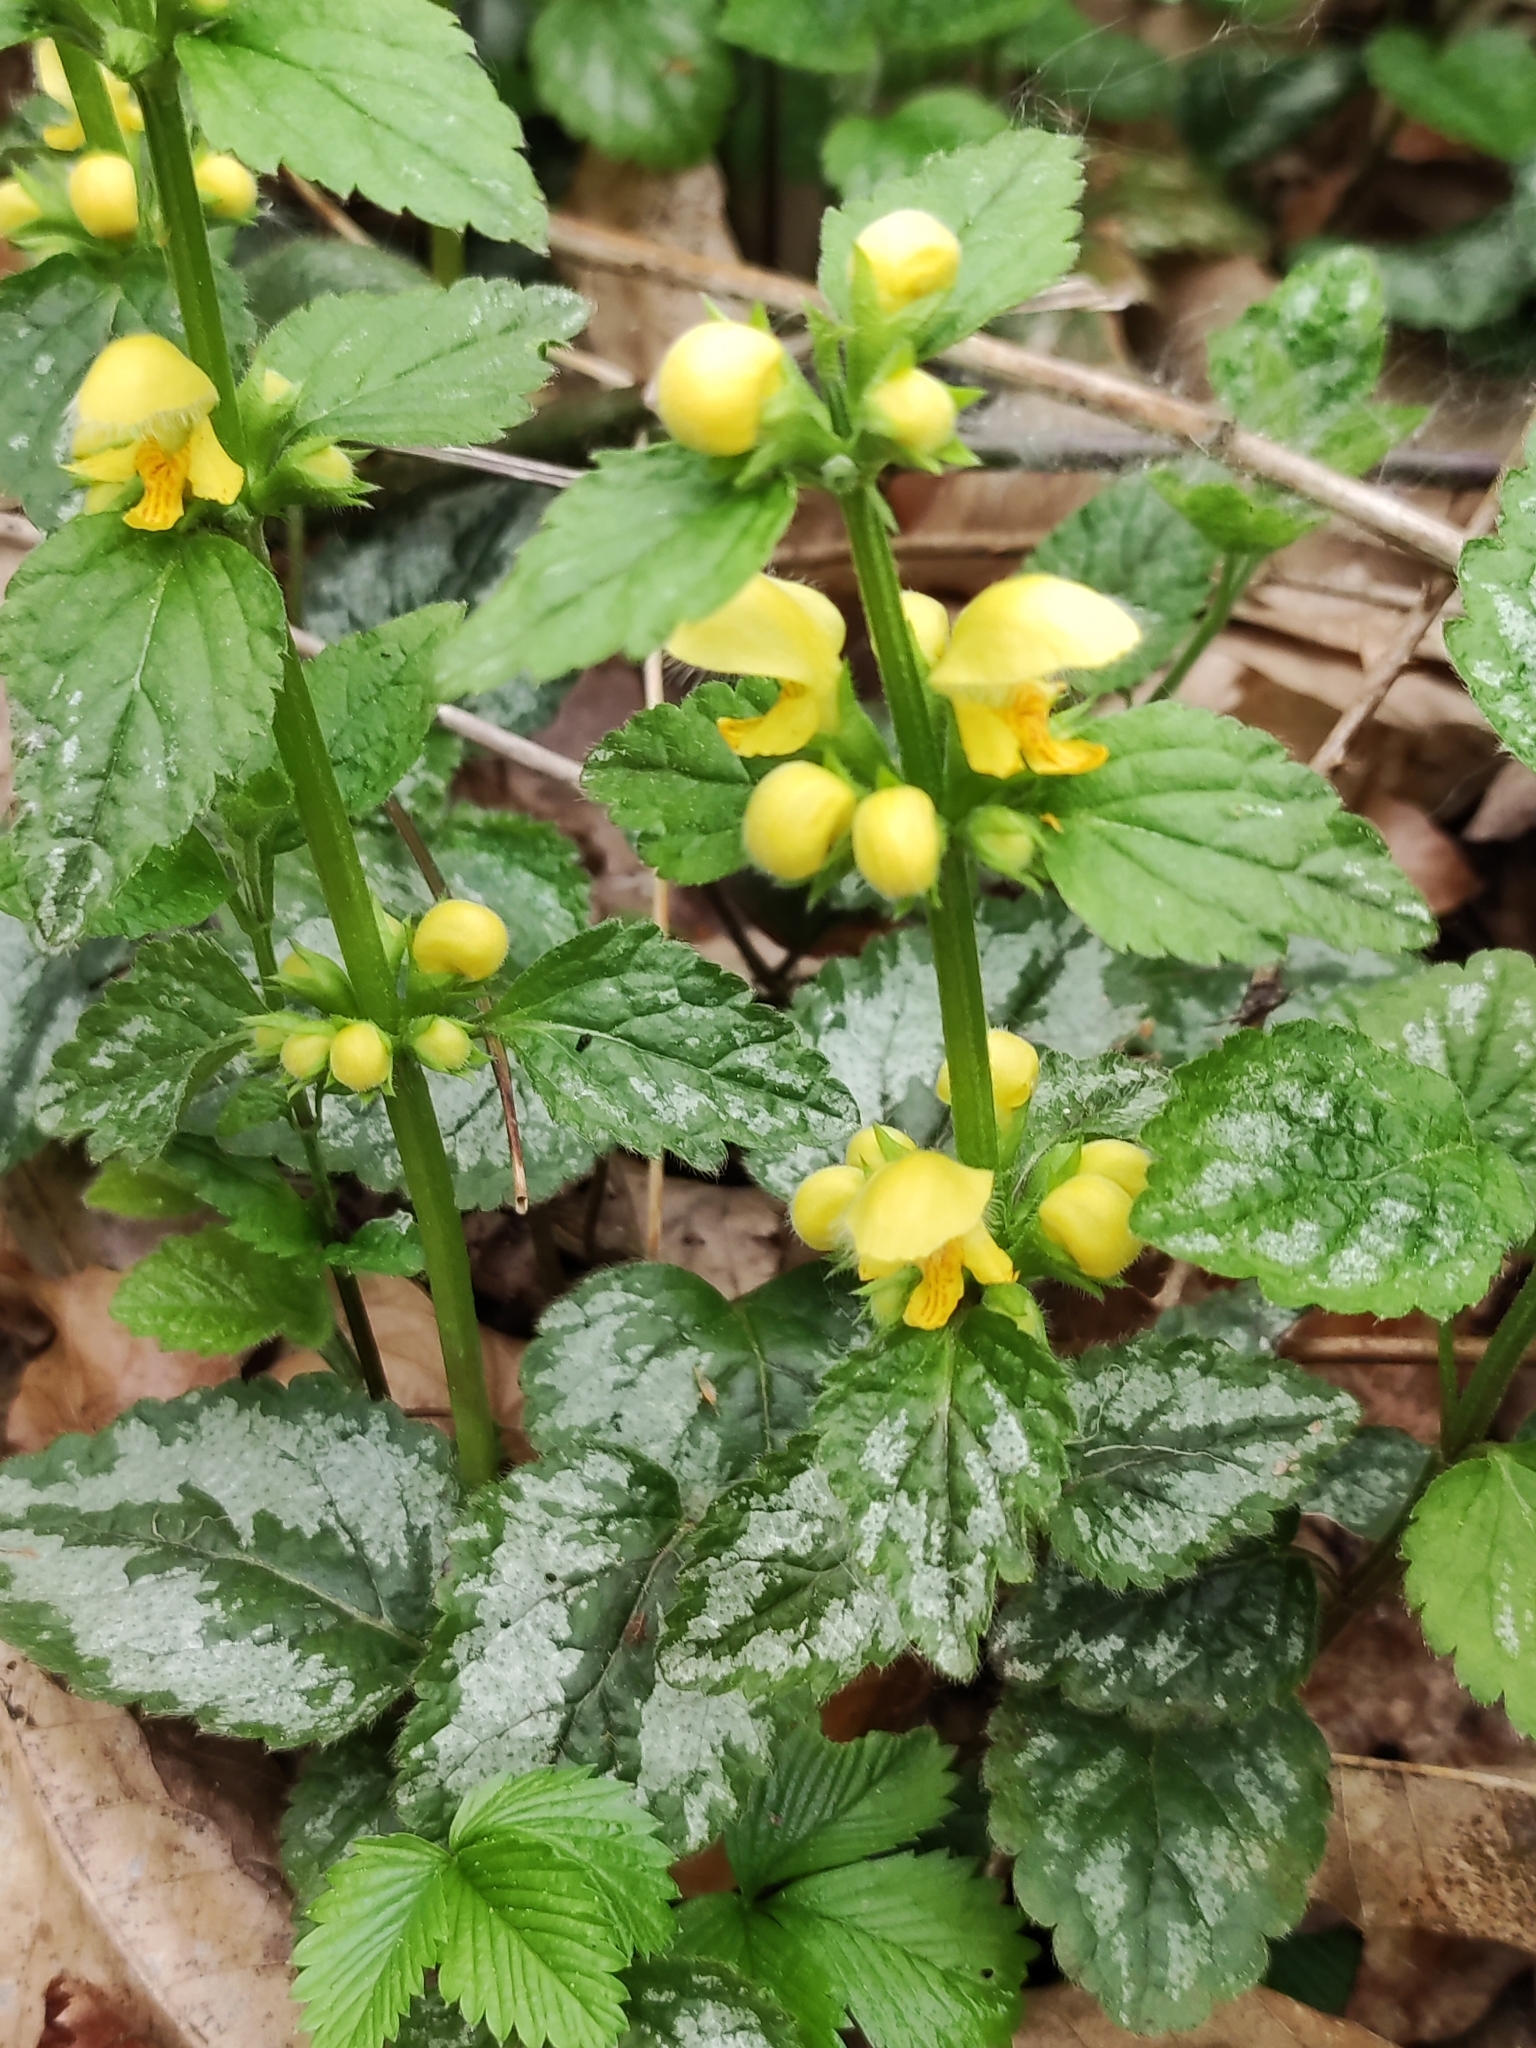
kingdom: Plantae
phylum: Tracheophyta
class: Magnoliopsida
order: Lamiales
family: Lamiaceae
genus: Lamium
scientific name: Lamium galeobdolon
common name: Yellow archangel
